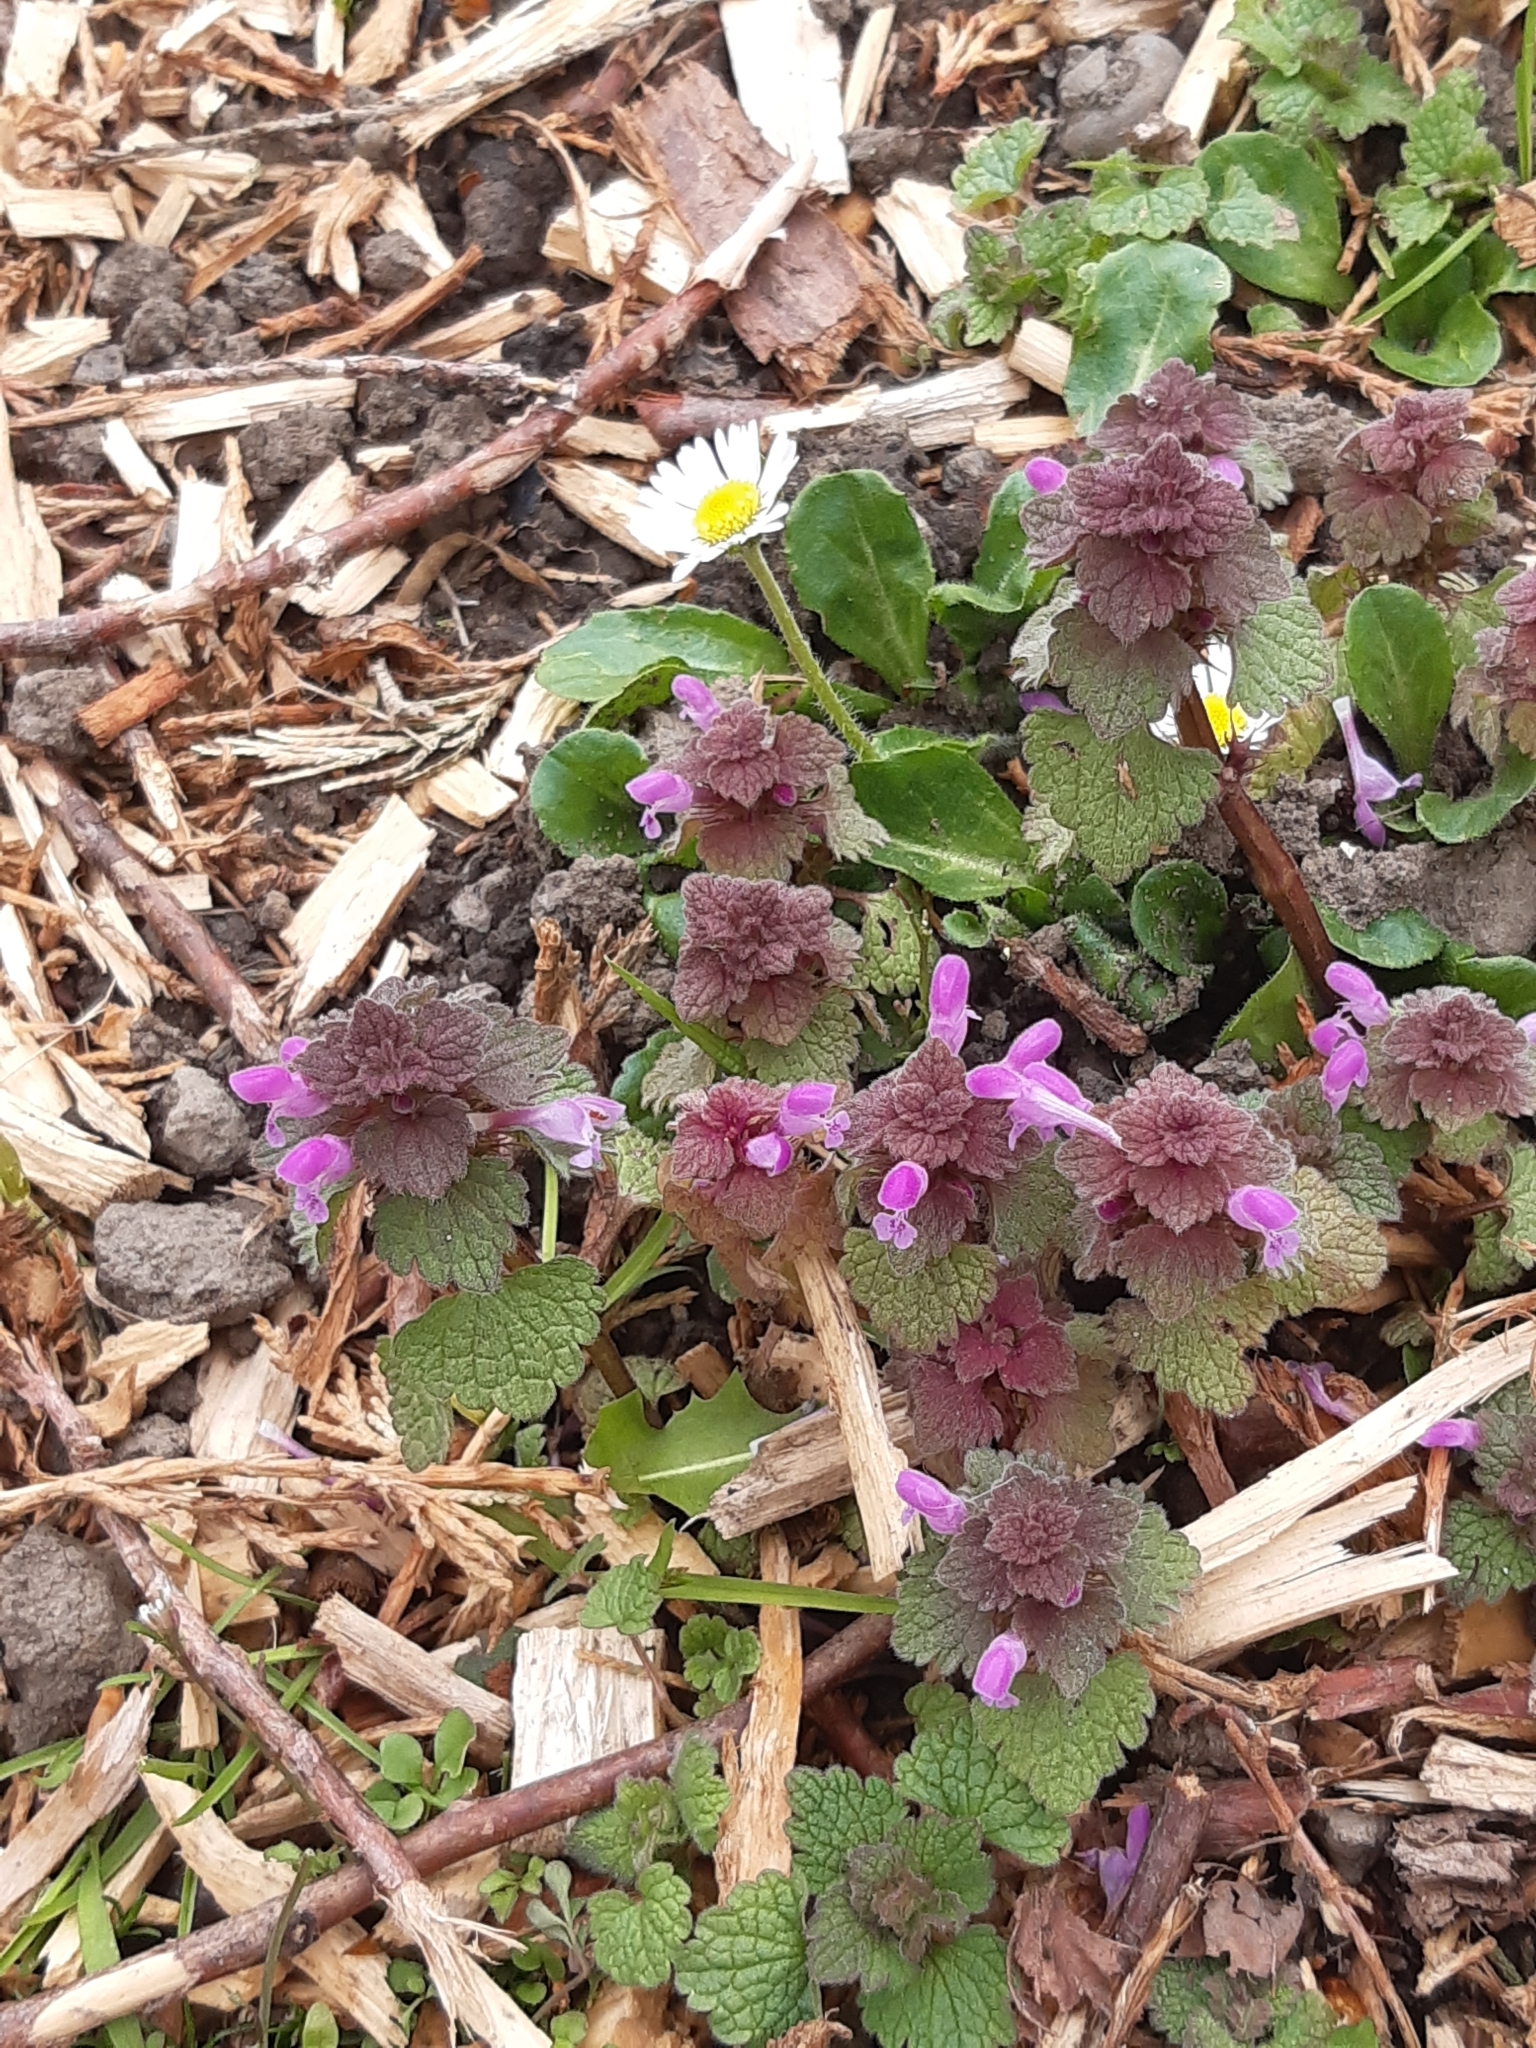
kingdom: Plantae
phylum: Tracheophyta
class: Magnoliopsida
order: Lamiales
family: Lamiaceae
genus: Lamium
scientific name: Lamium purpureum
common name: Red dead-nettle
